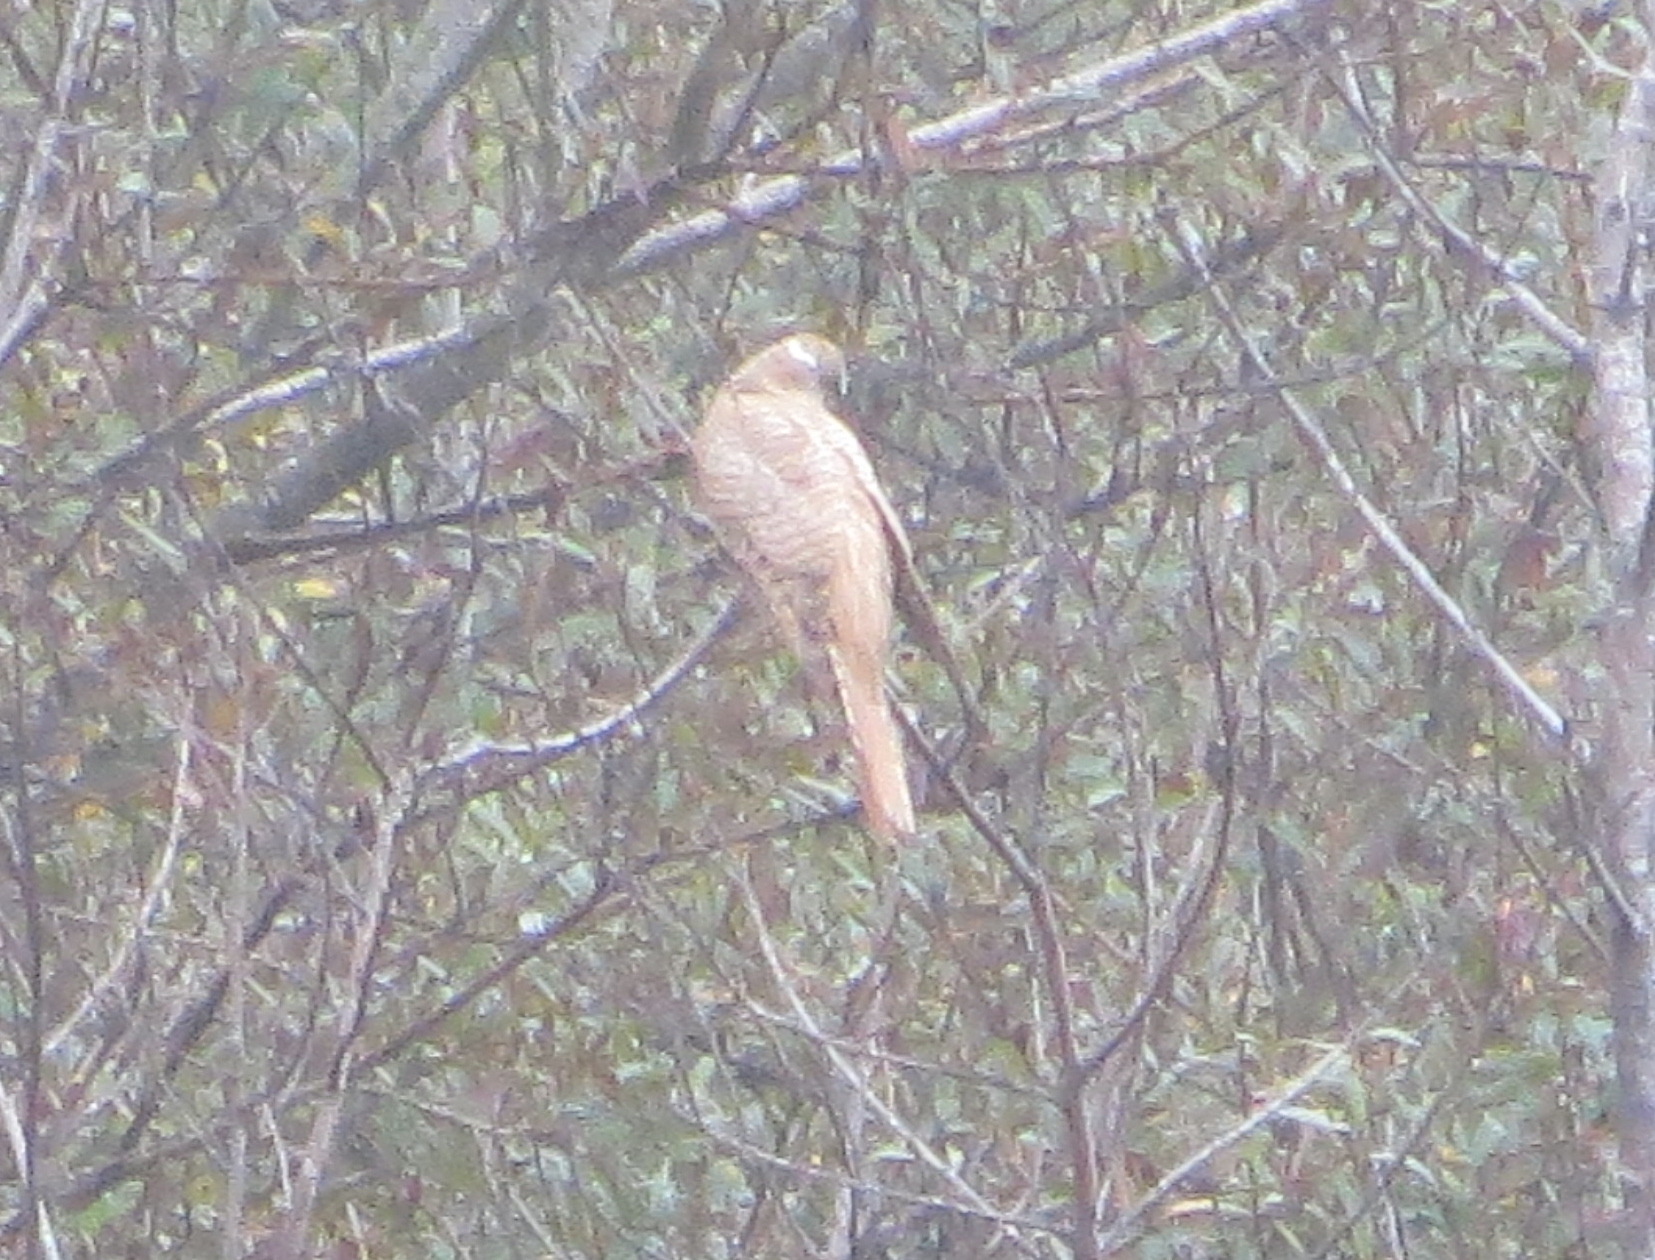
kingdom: Animalia
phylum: Chordata
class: Aves
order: Cuculiformes
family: Cuculidae
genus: Cuculus
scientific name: Cuculus canorus
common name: Common cuckoo
